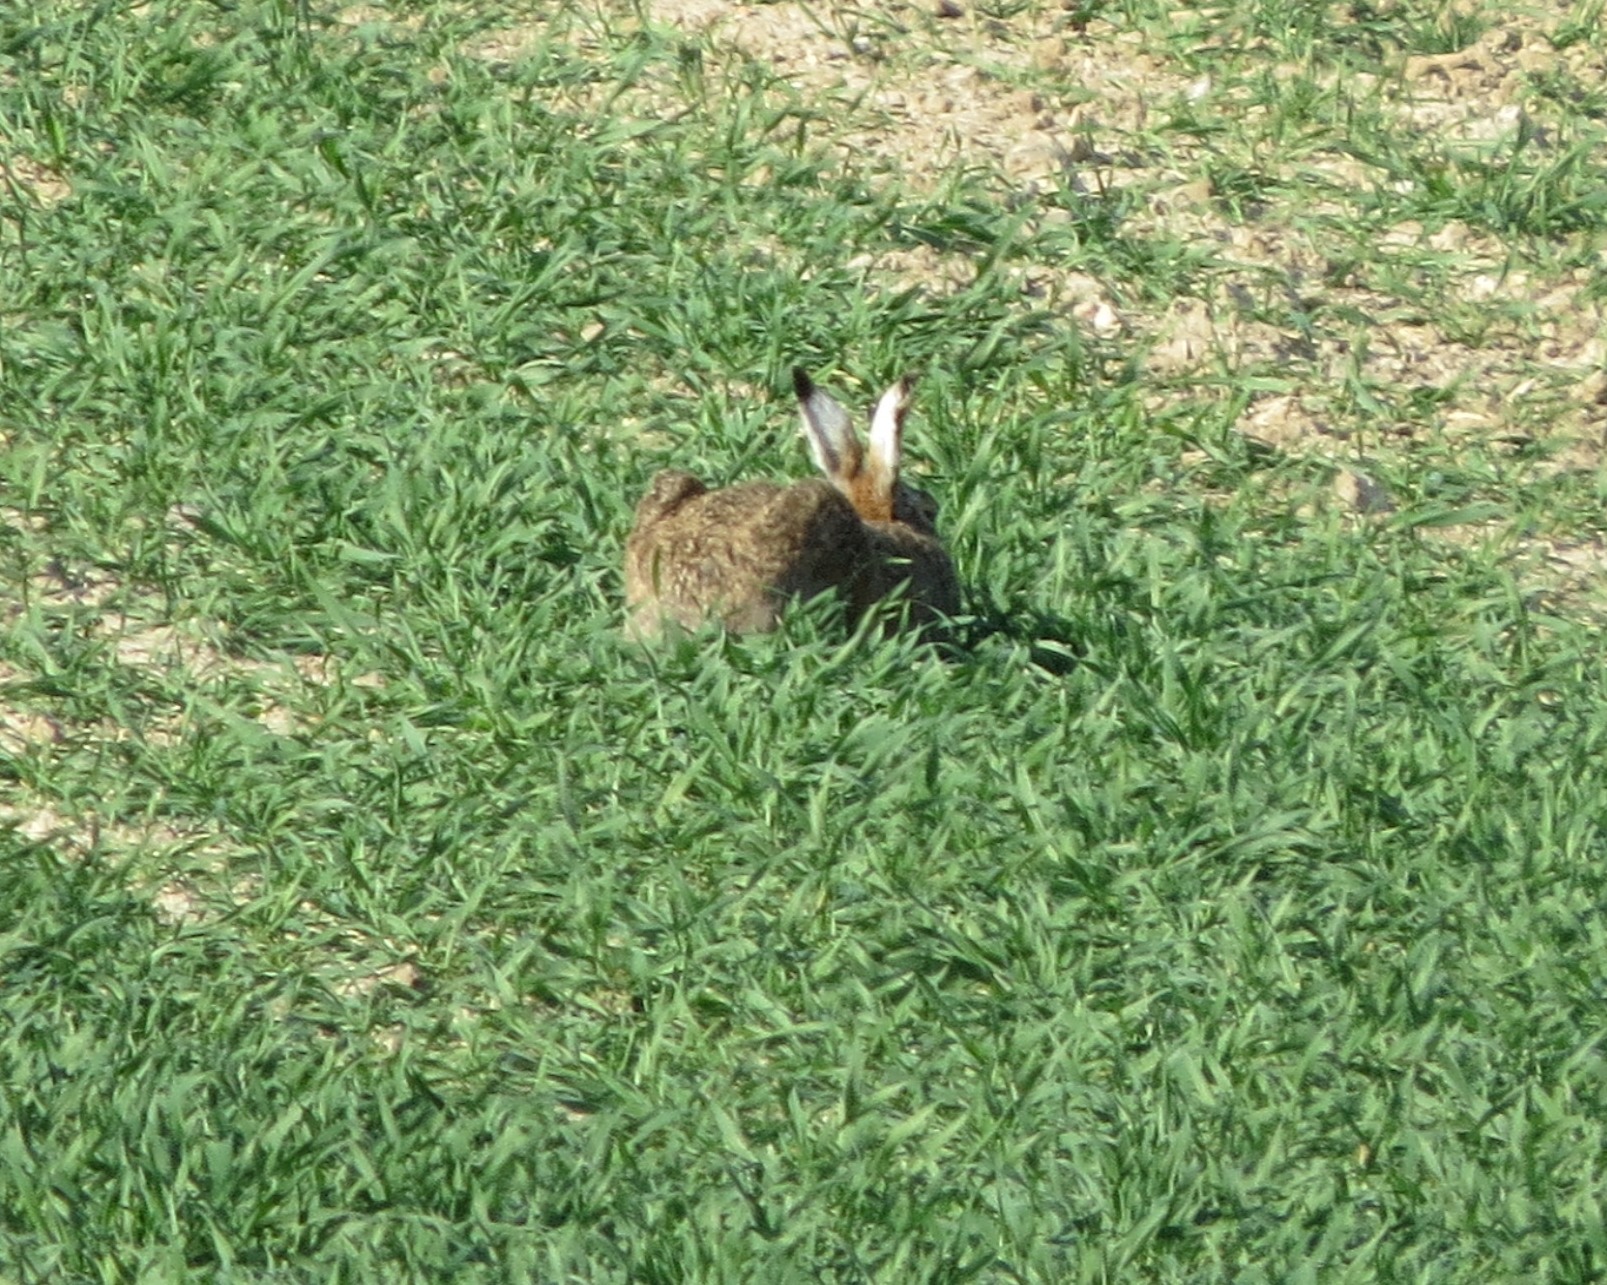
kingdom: Animalia
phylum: Chordata
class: Mammalia
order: Lagomorpha
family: Leporidae
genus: Lepus
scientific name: Lepus europaeus
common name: European hare
